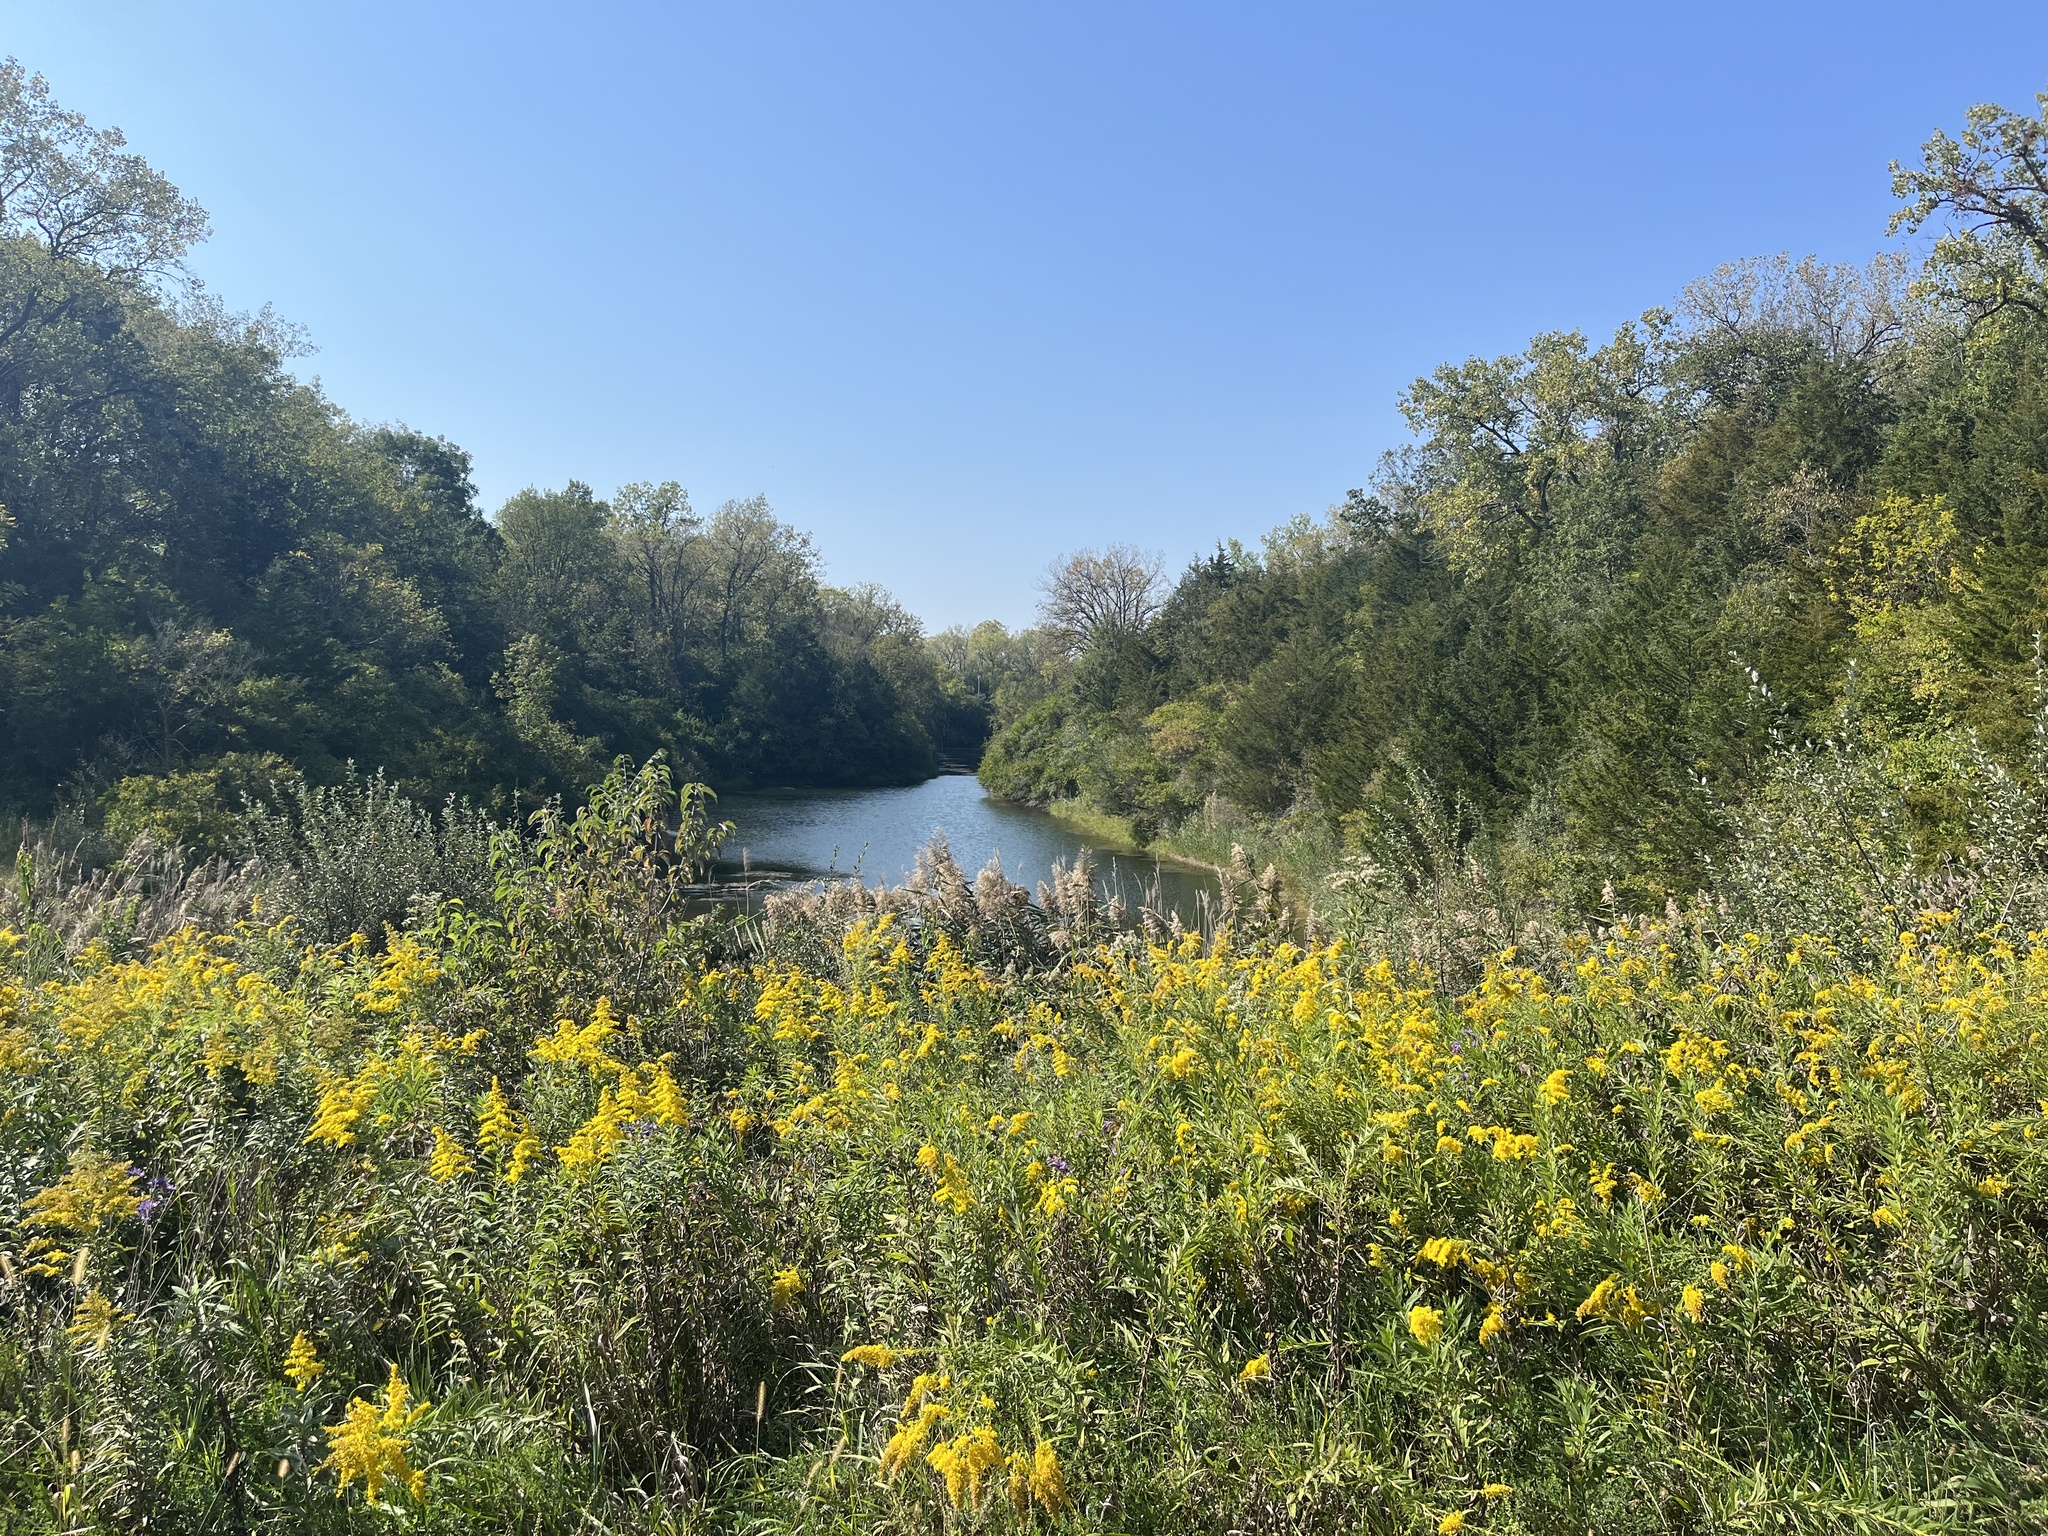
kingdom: Plantae
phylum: Tracheophyta
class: Magnoliopsida
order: Asterales
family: Asteraceae
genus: Solidago
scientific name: Solidago altissima
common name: Late goldenrod
